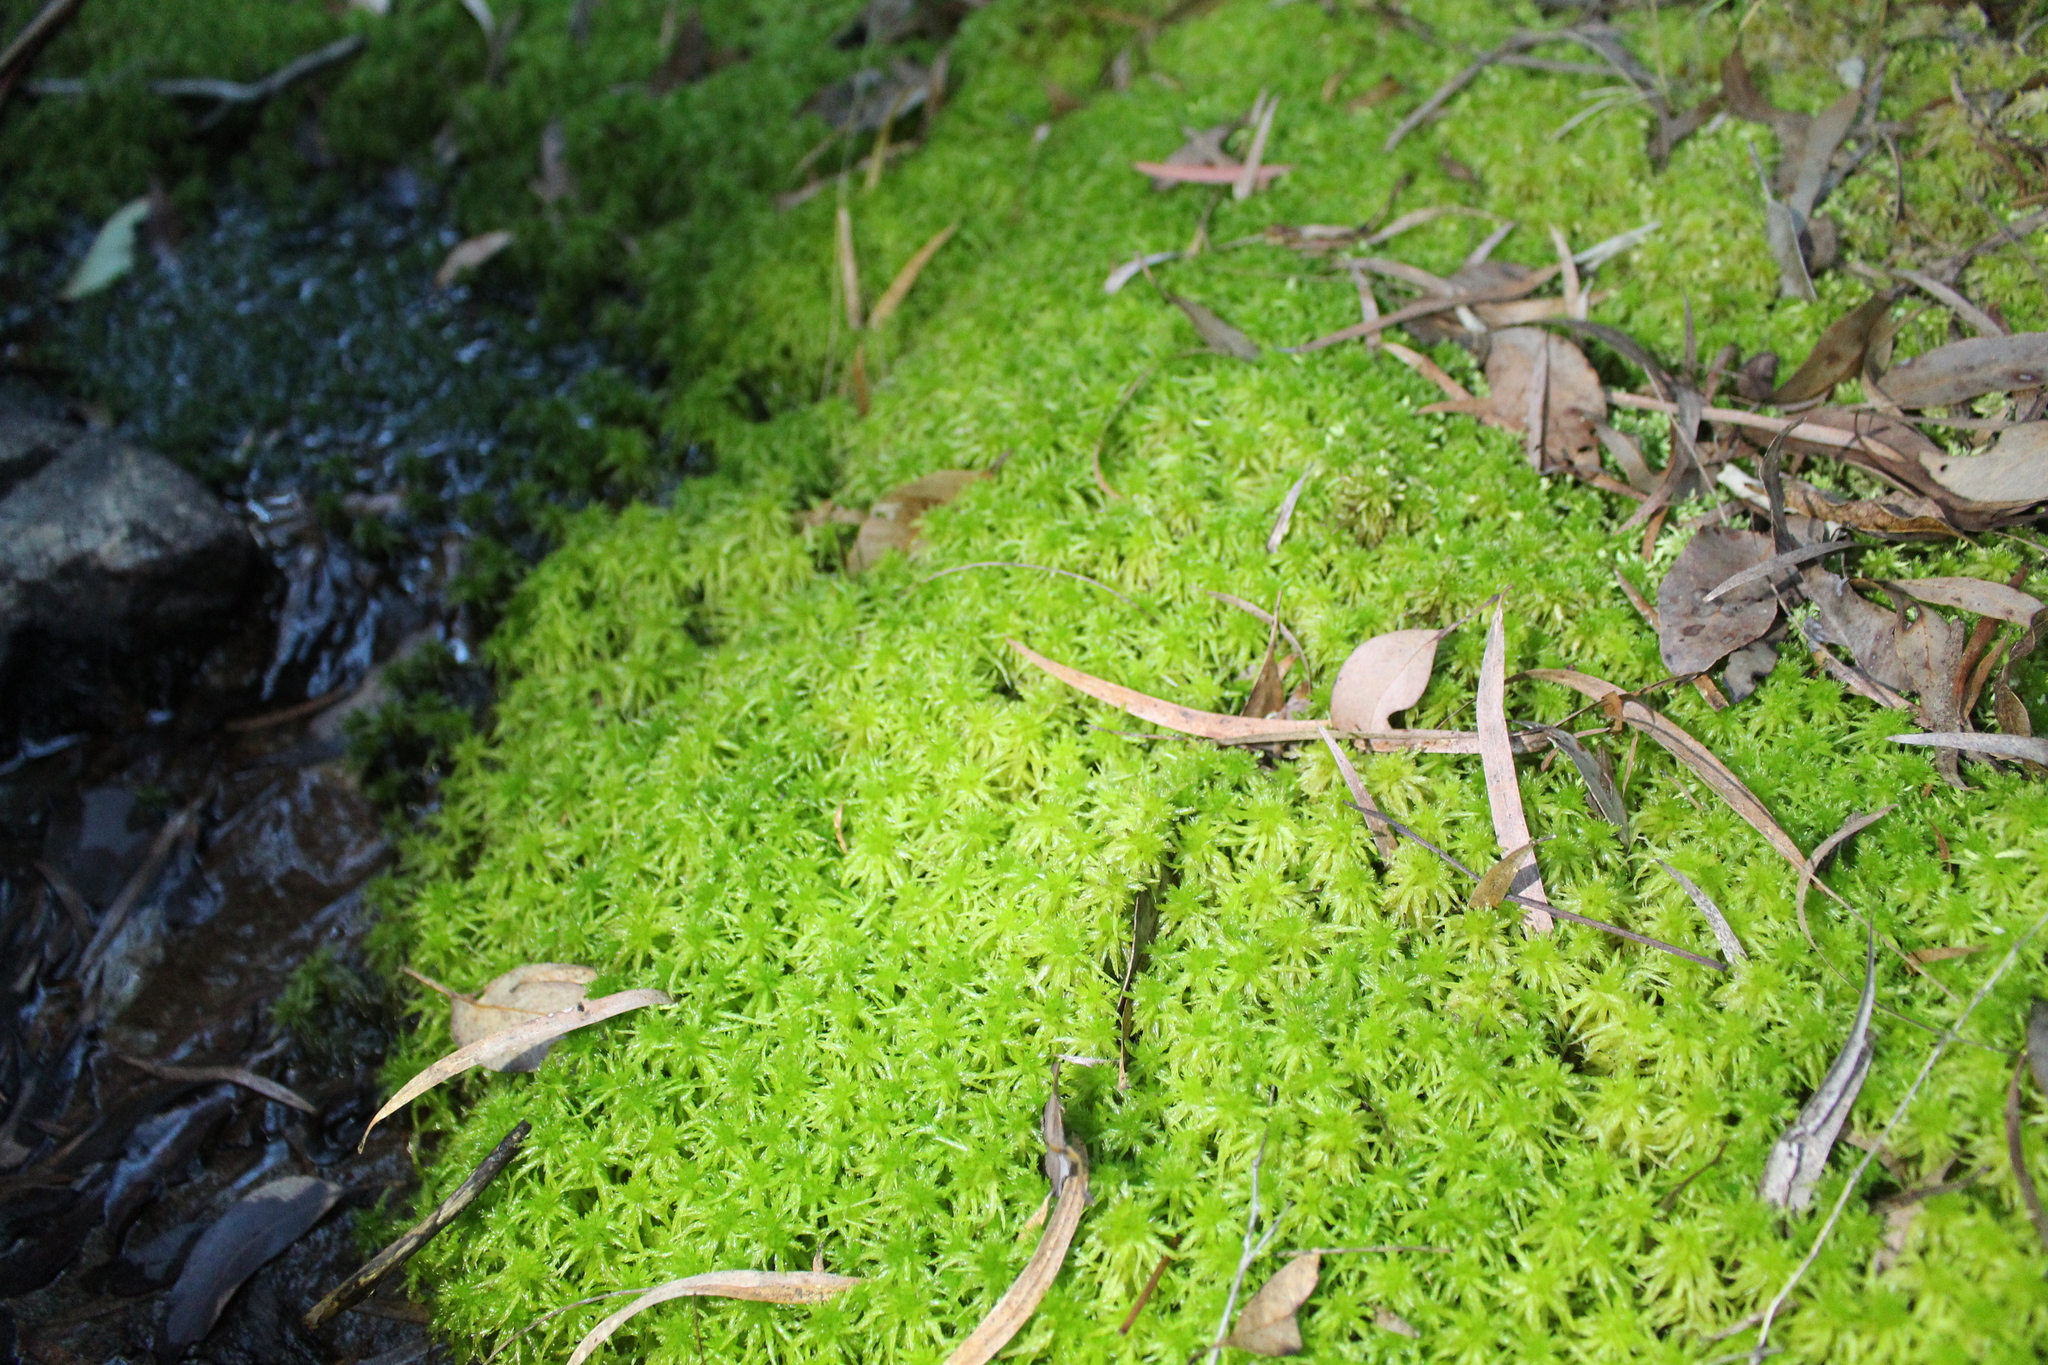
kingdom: Plantae
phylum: Bryophyta
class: Sphagnopsida
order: Sphagnales
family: Sphagnaceae
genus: Sphagnum
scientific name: Sphagnum novozelandicum
